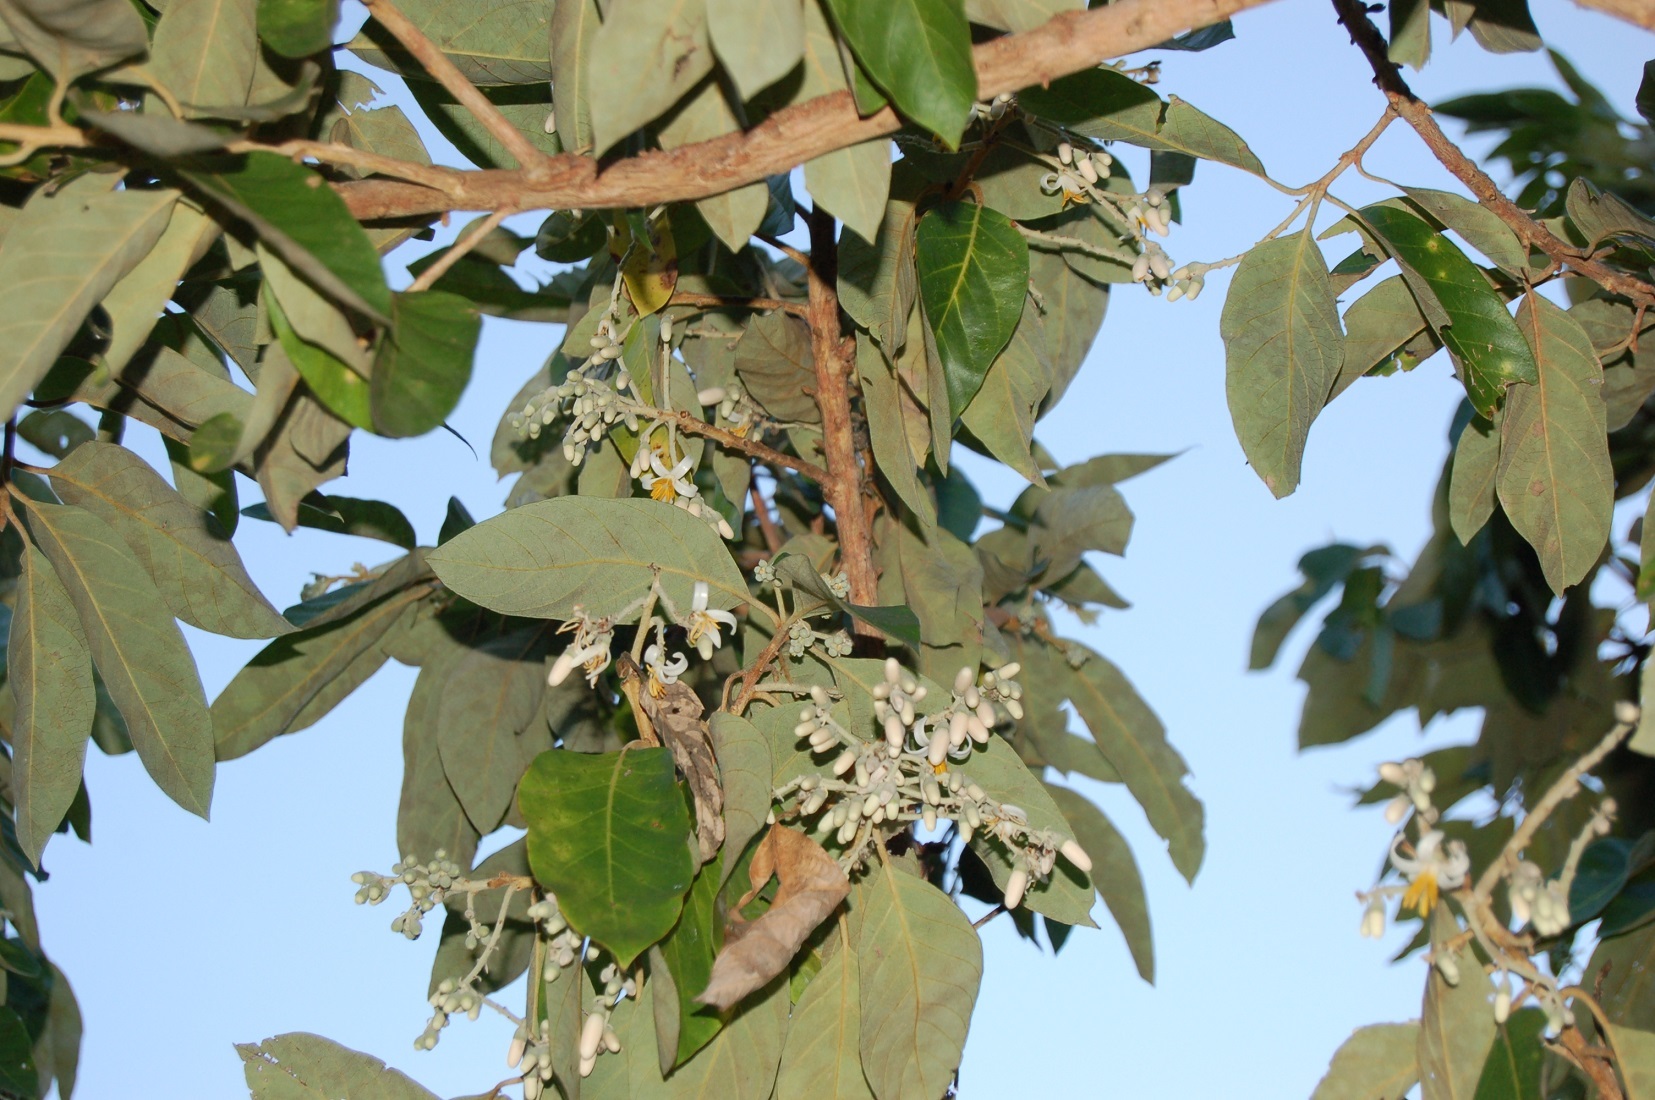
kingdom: Plantae
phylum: Tracheophyta
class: Magnoliopsida
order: Ericales
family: Styracaceae
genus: Styrax
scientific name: Styrax argenteus
